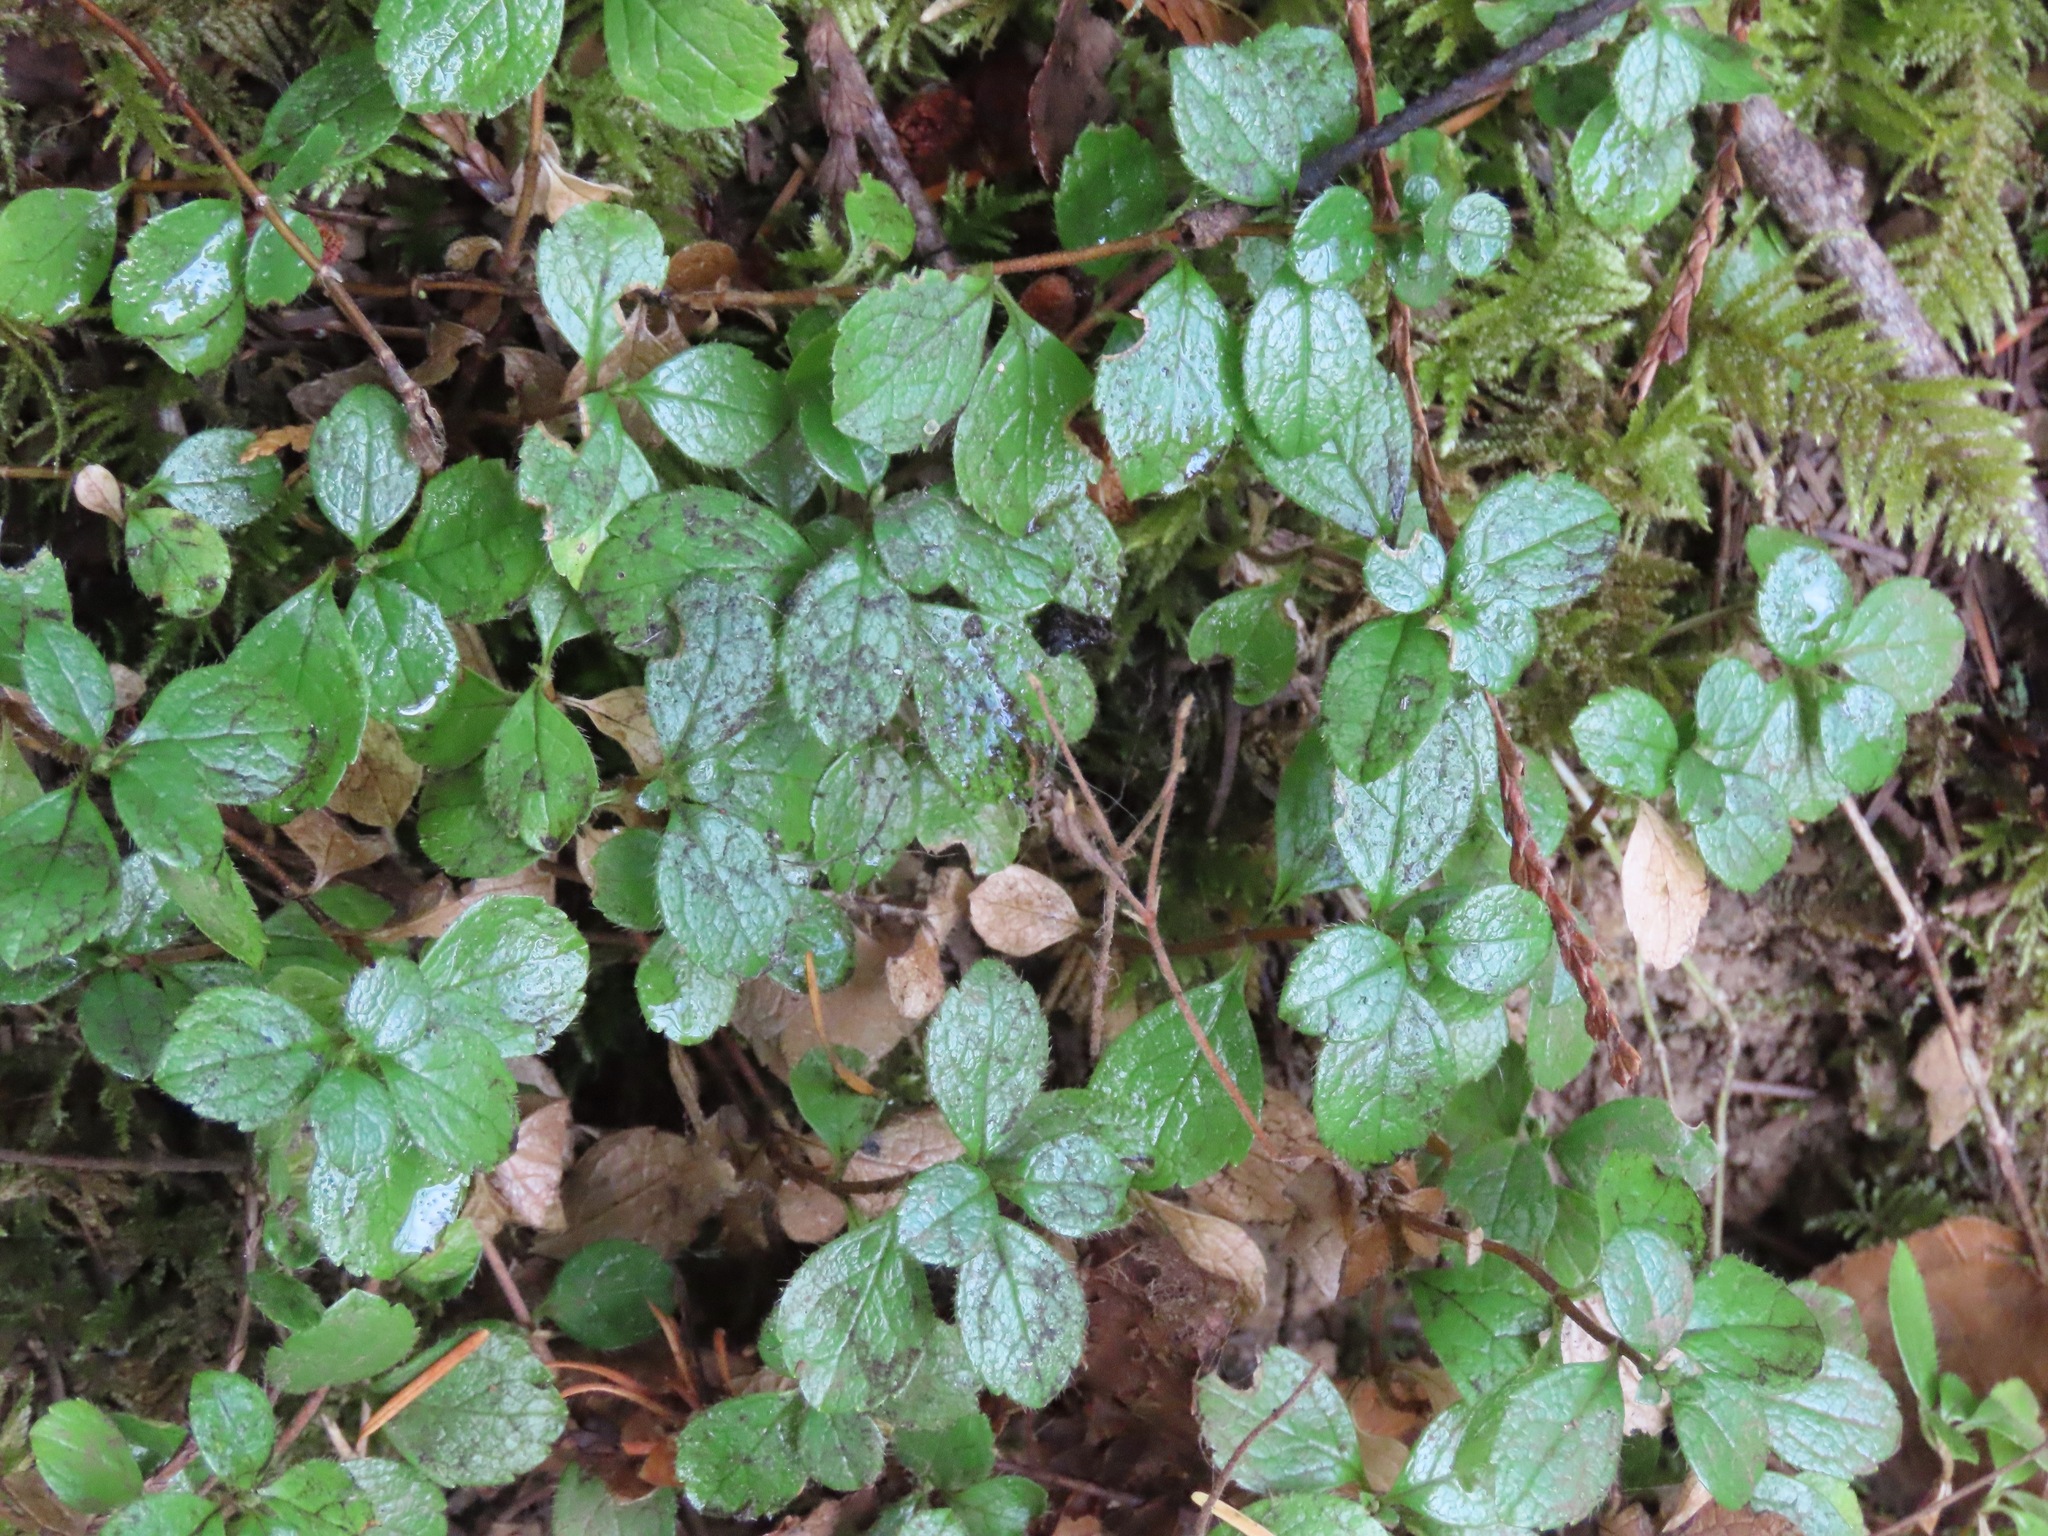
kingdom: Plantae
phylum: Tracheophyta
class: Magnoliopsida
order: Dipsacales
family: Caprifoliaceae
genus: Linnaea
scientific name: Linnaea borealis
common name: Twinflower
